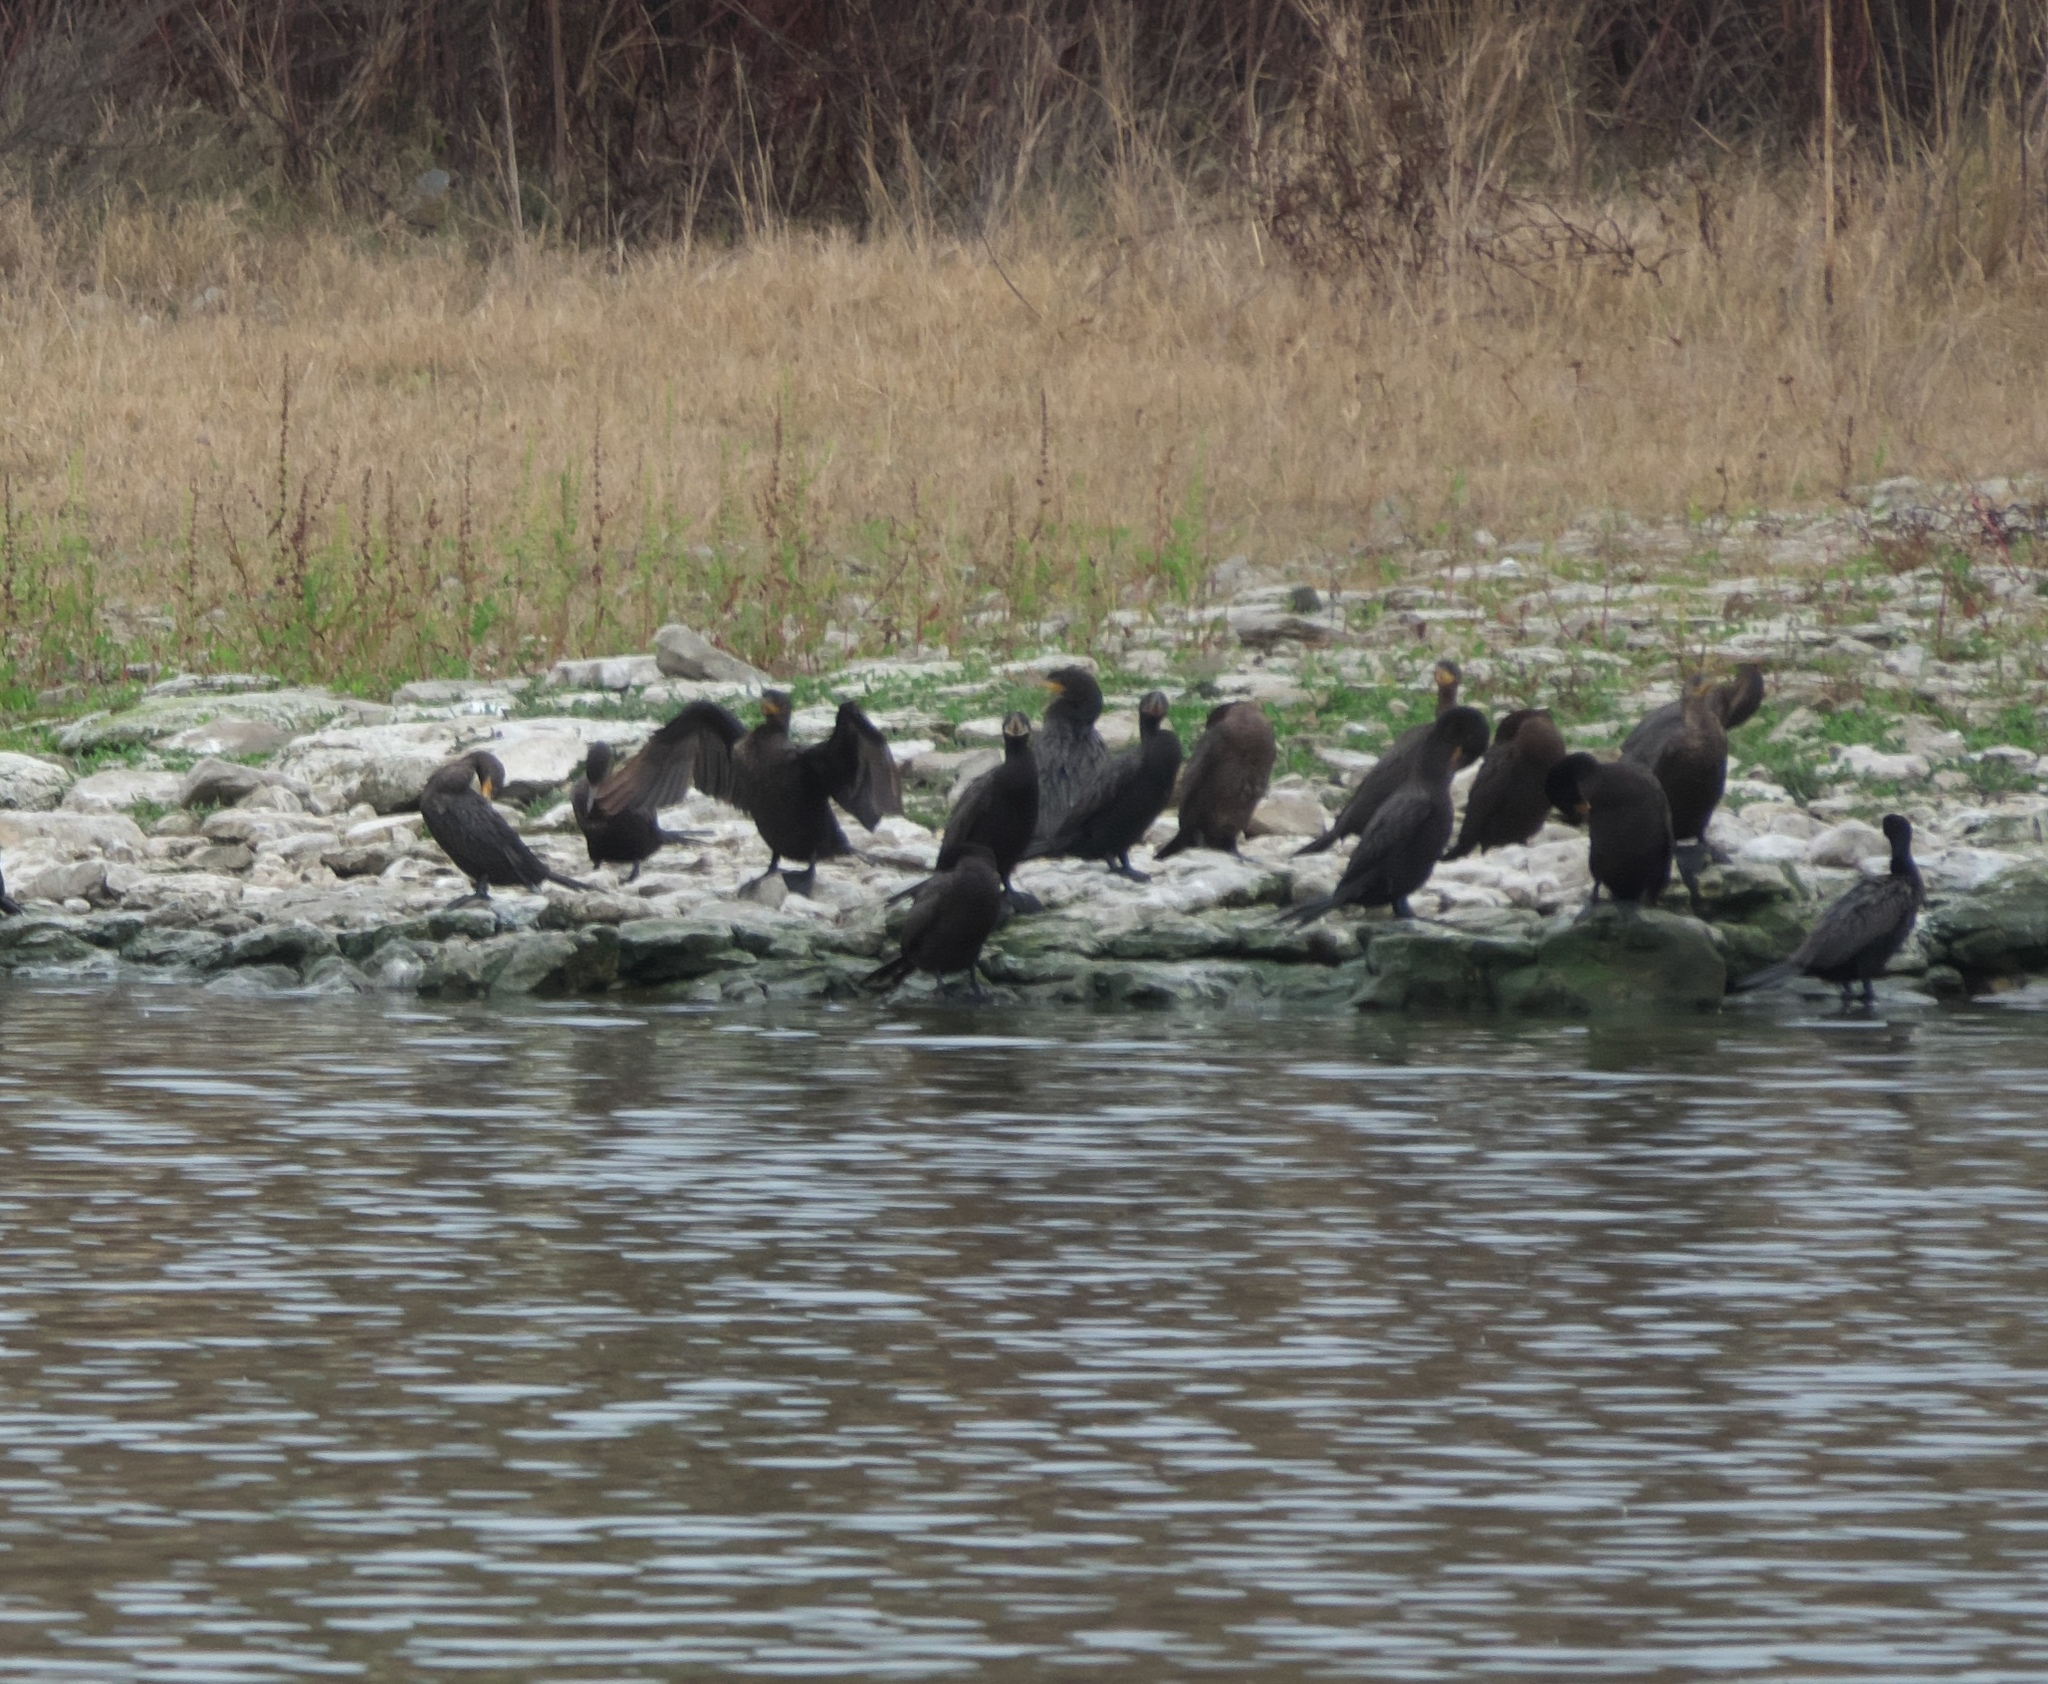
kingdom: Animalia
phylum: Chordata
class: Aves
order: Suliformes
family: Phalacrocoracidae
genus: Phalacrocorax
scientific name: Phalacrocorax brasilianus
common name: Neotropic cormorant
